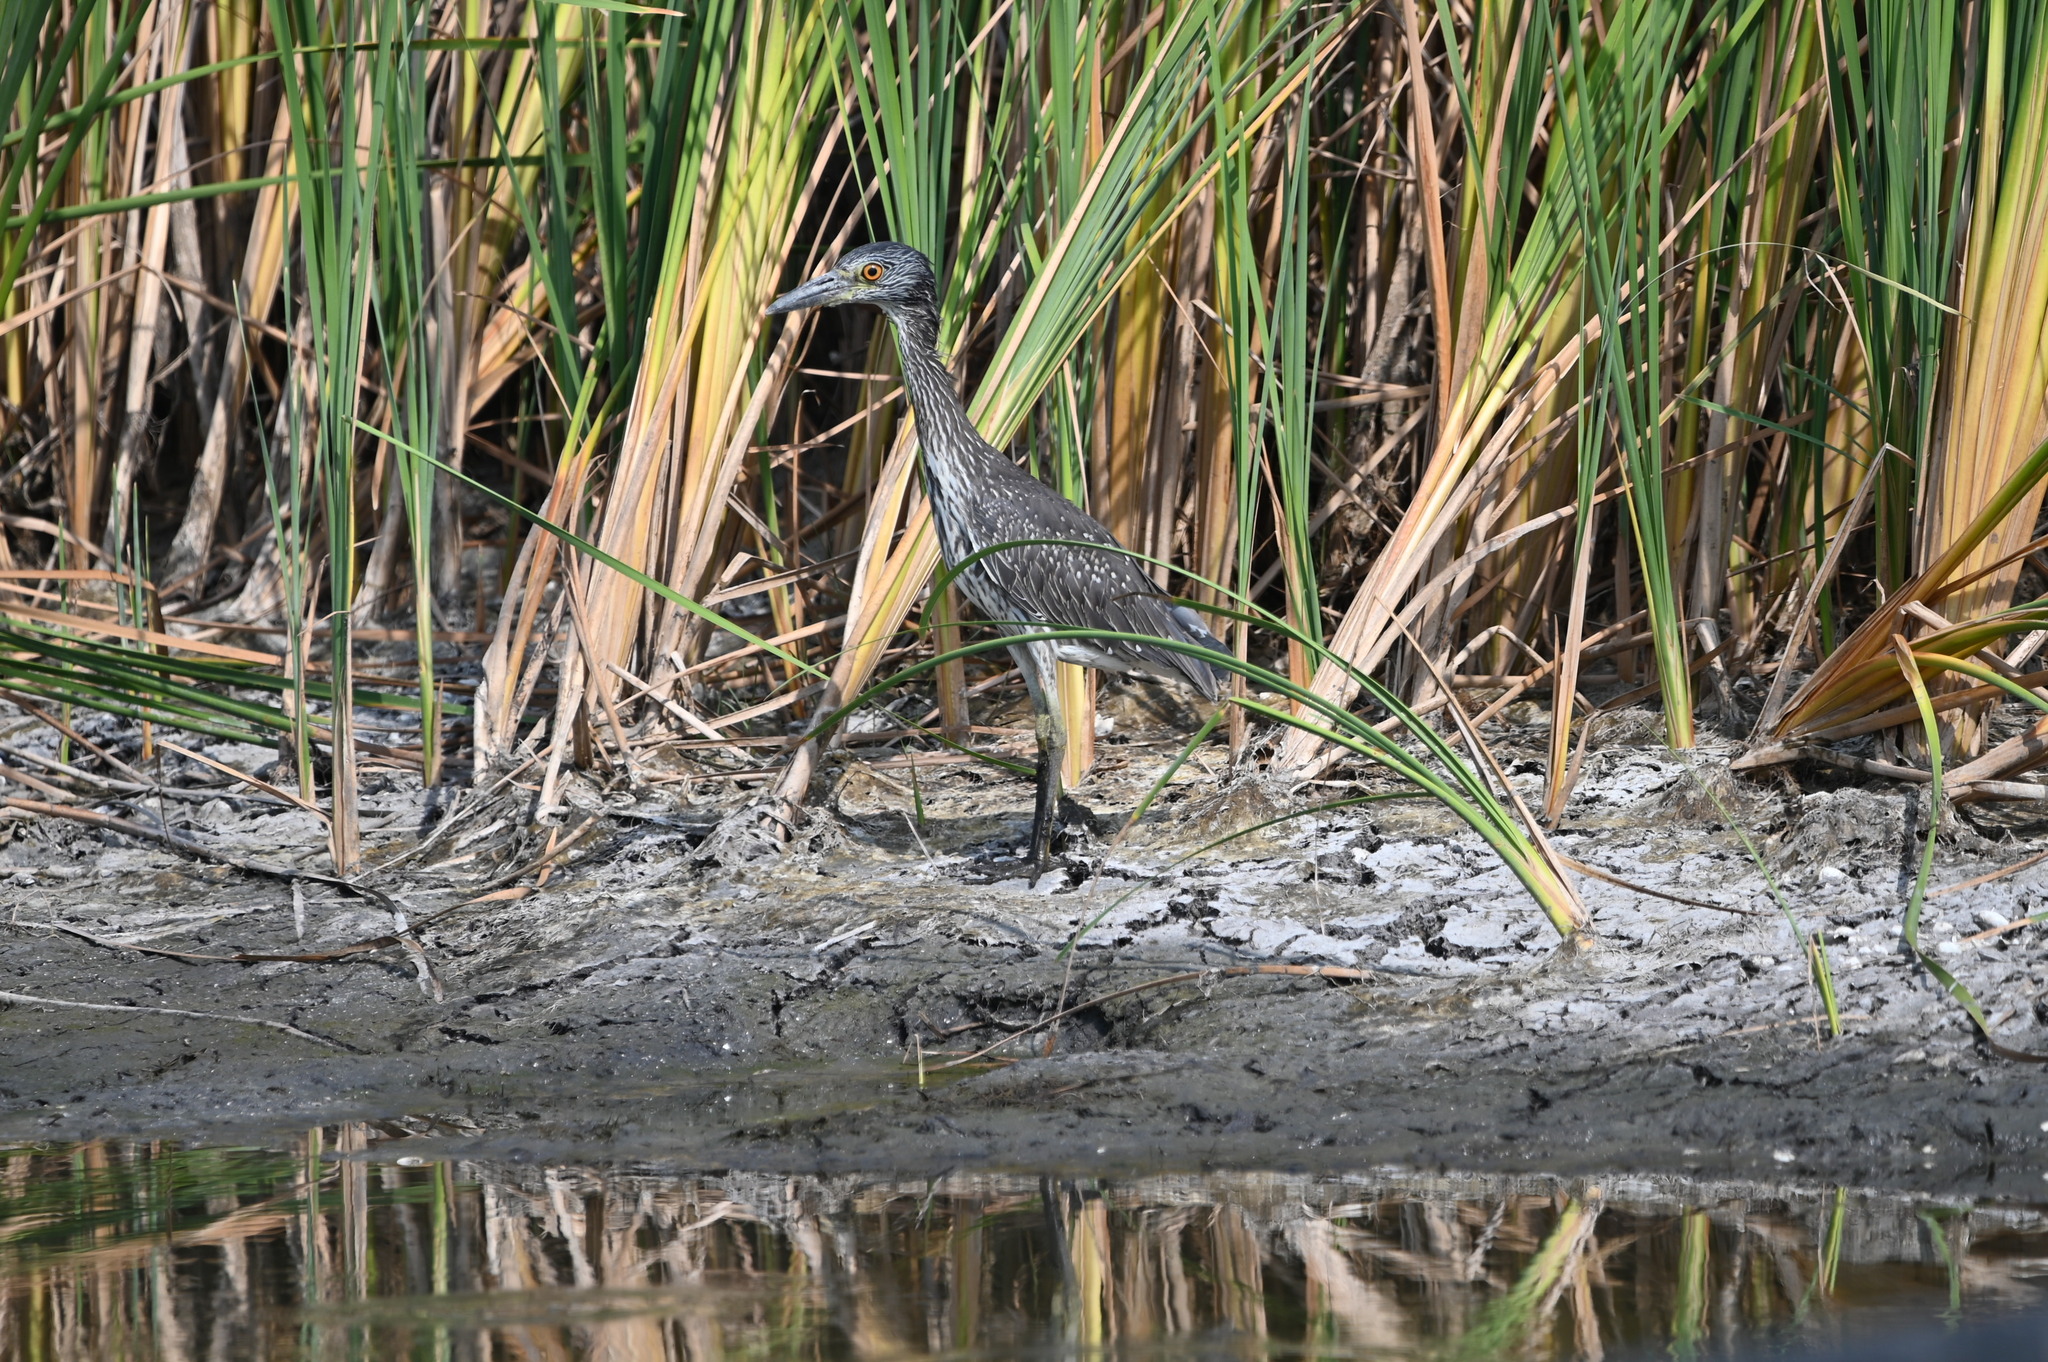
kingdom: Animalia
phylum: Chordata
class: Aves
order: Pelecaniformes
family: Ardeidae
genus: Nyctanassa
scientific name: Nyctanassa violacea
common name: Yellow-crowned night heron
